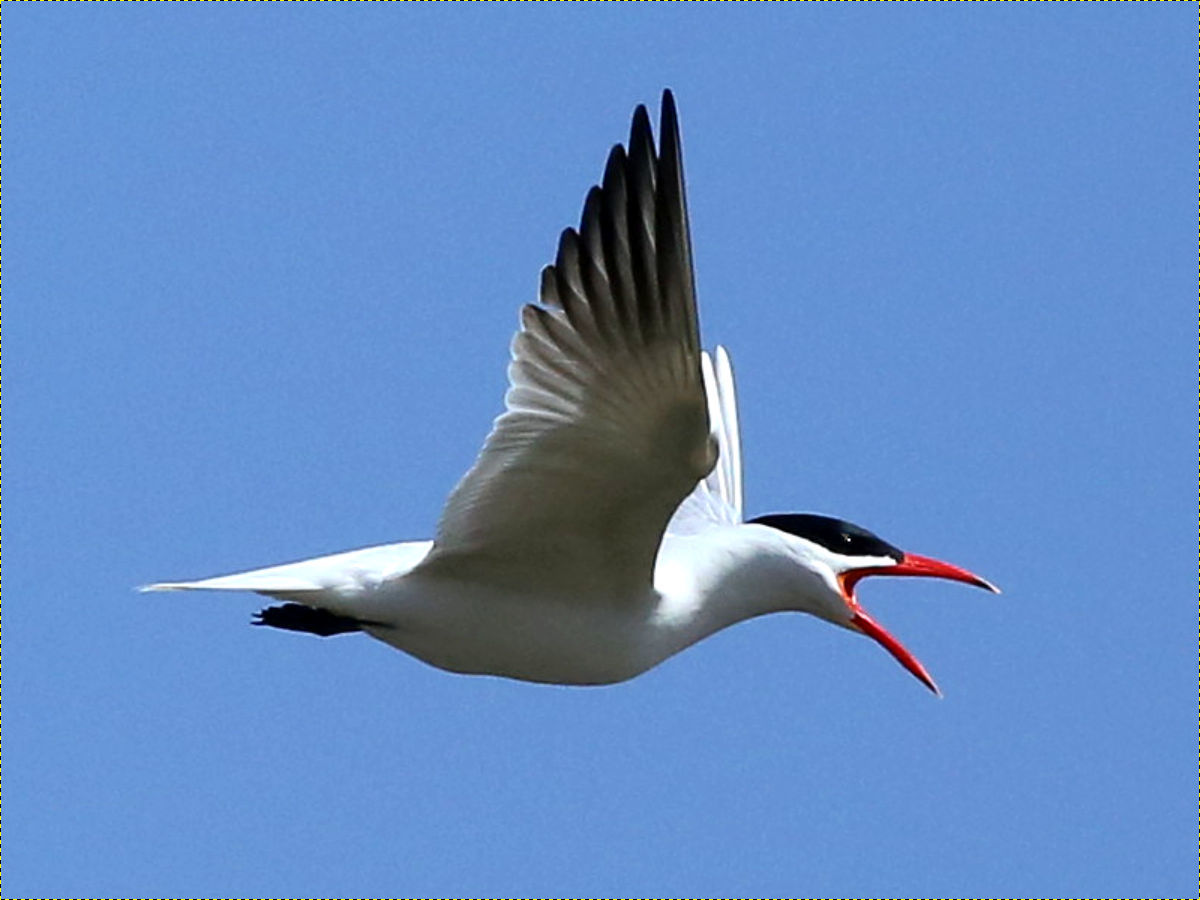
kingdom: Animalia
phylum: Chordata
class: Aves
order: Charadriiformes
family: Laridae
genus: Hydroprogne
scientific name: Hydroprogne caspia
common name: Caspian tern
